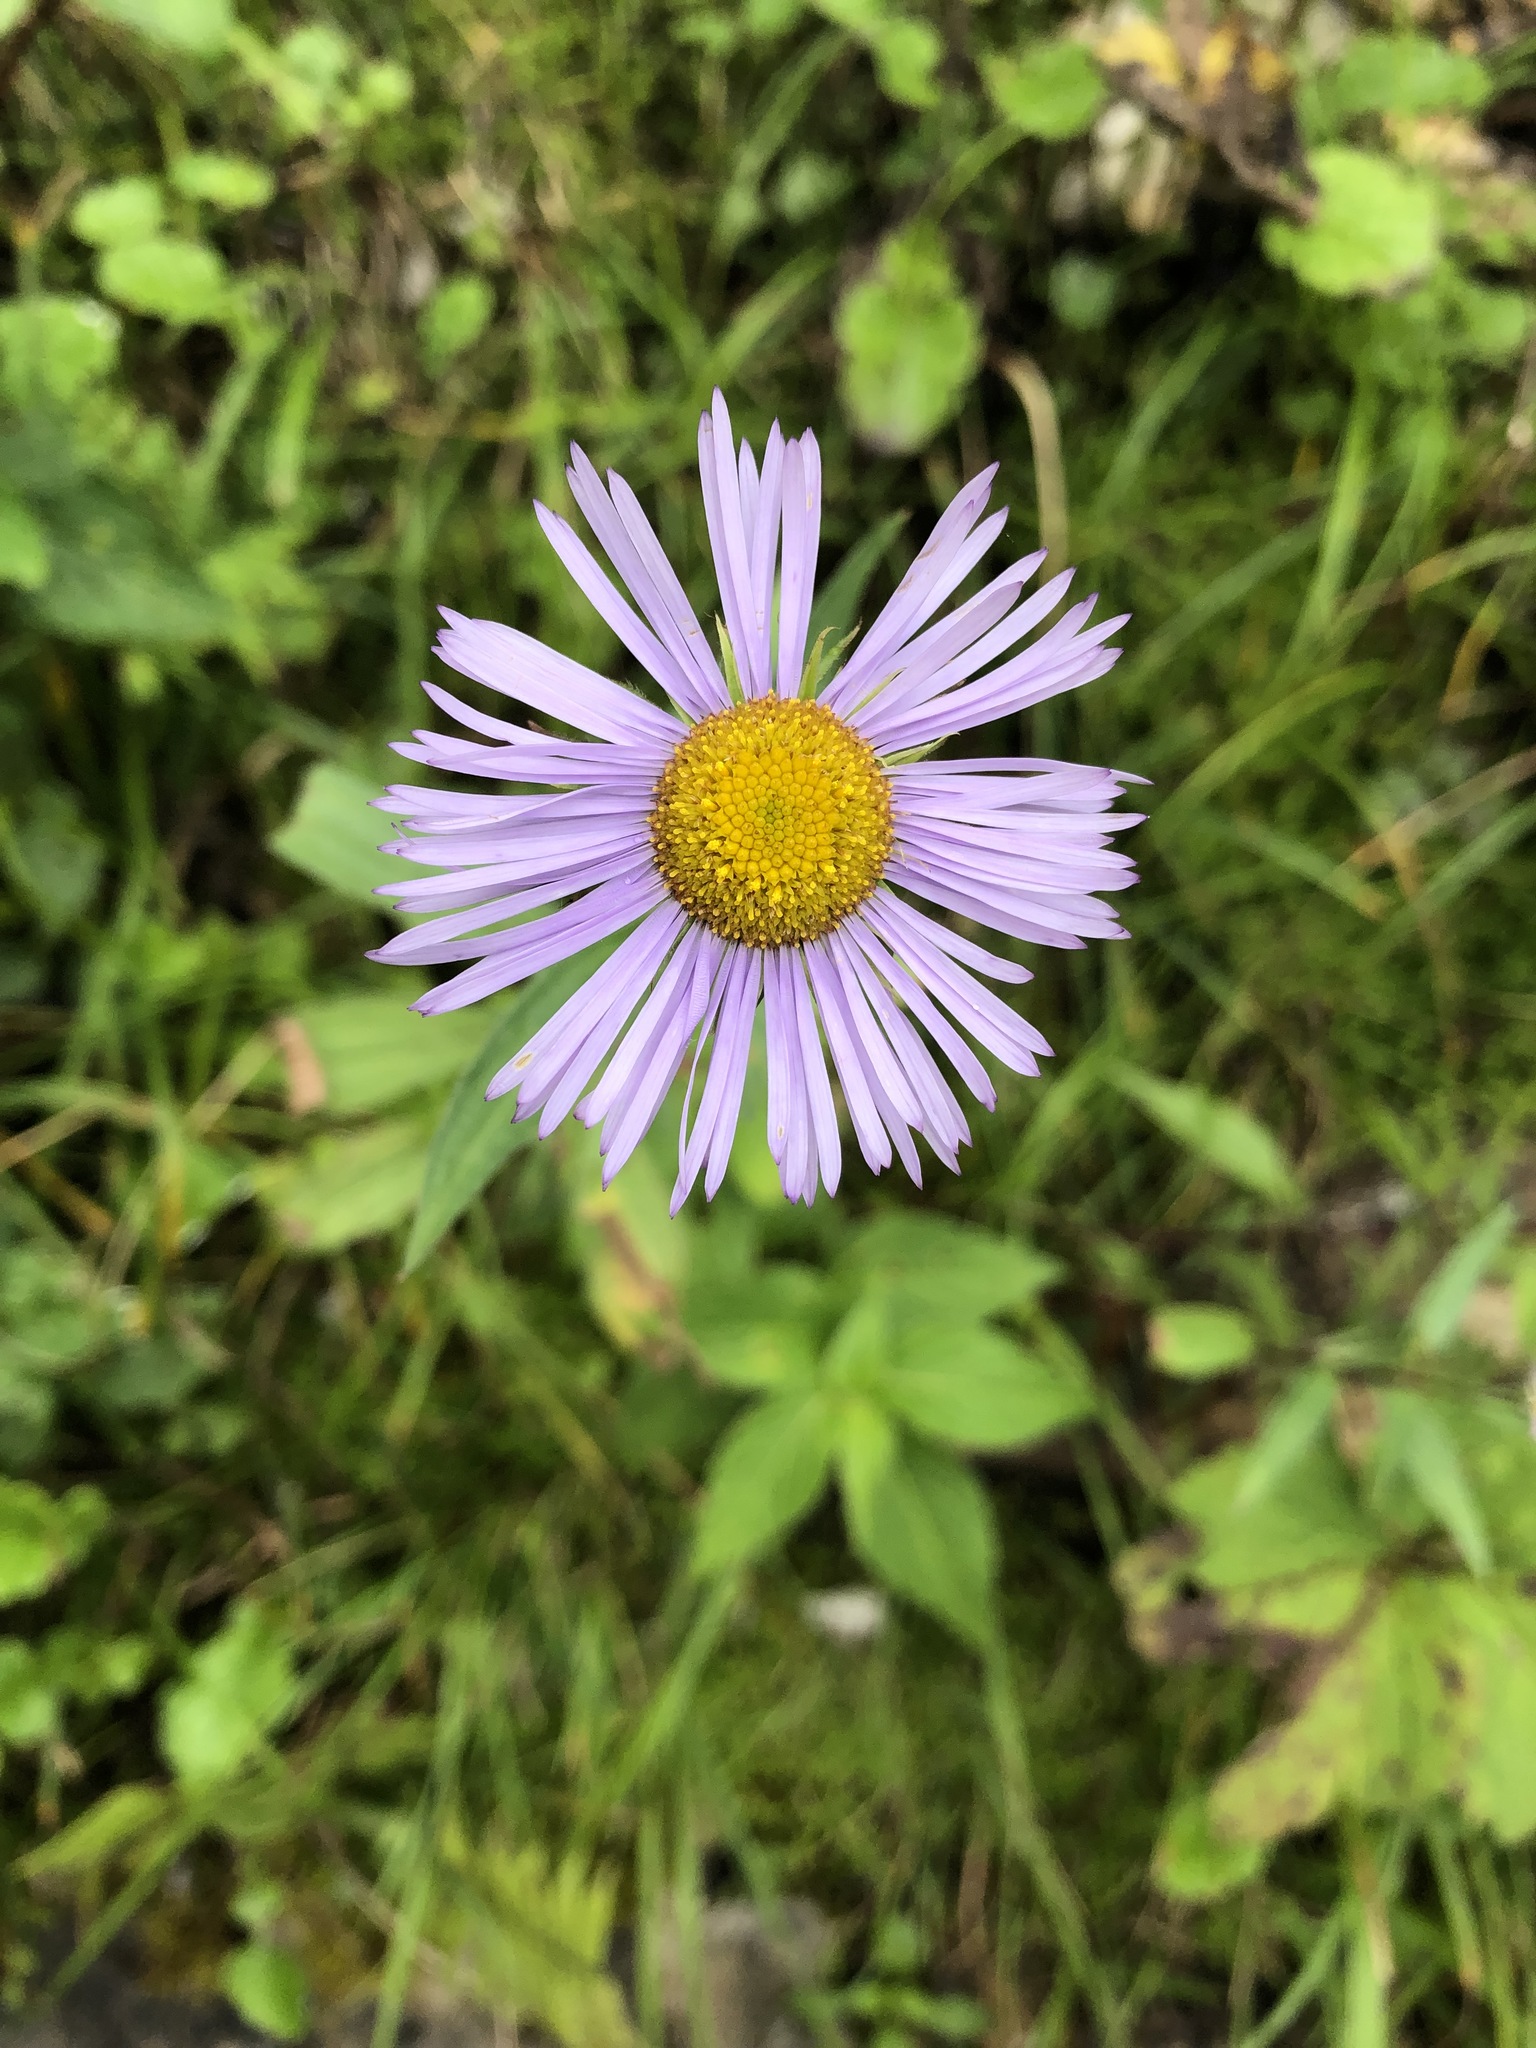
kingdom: Plantae
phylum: Tracheophyta
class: Magnoliopsida
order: Asterales
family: Asteraceae
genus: Erigeron
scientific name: Erigeron multiradiatus
